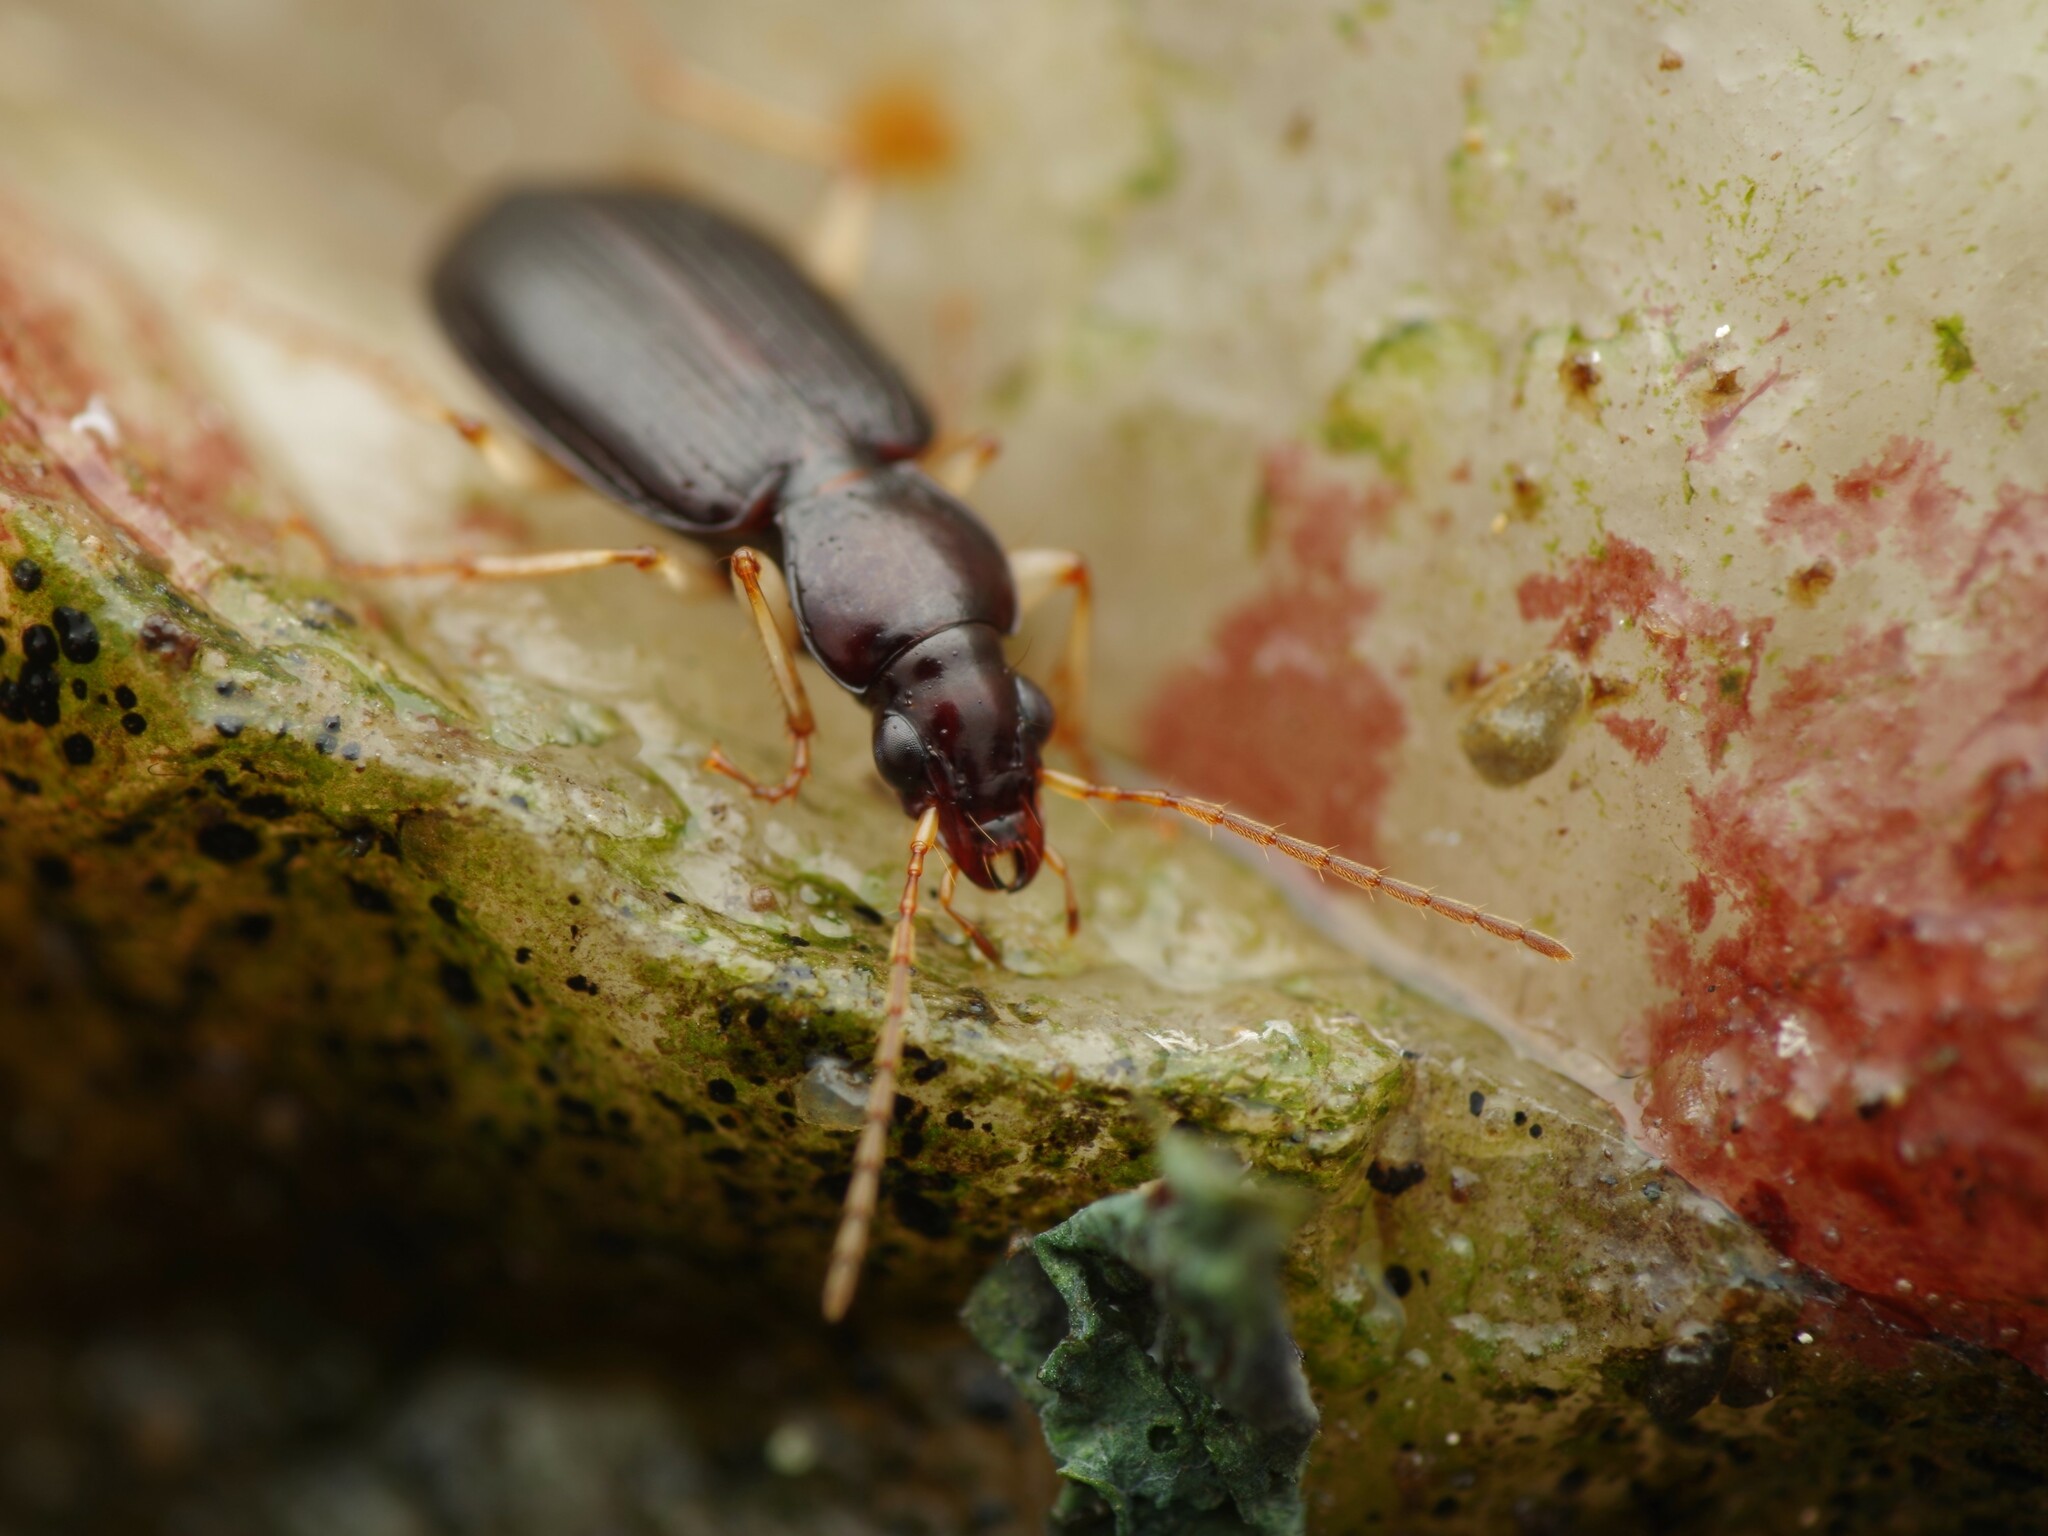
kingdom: Animalia
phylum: Arthropoda
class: Insecta
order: Coleoptera
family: Carabidae
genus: Paranchus
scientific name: Paranchus albipes
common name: White-legged harp ground beetle
